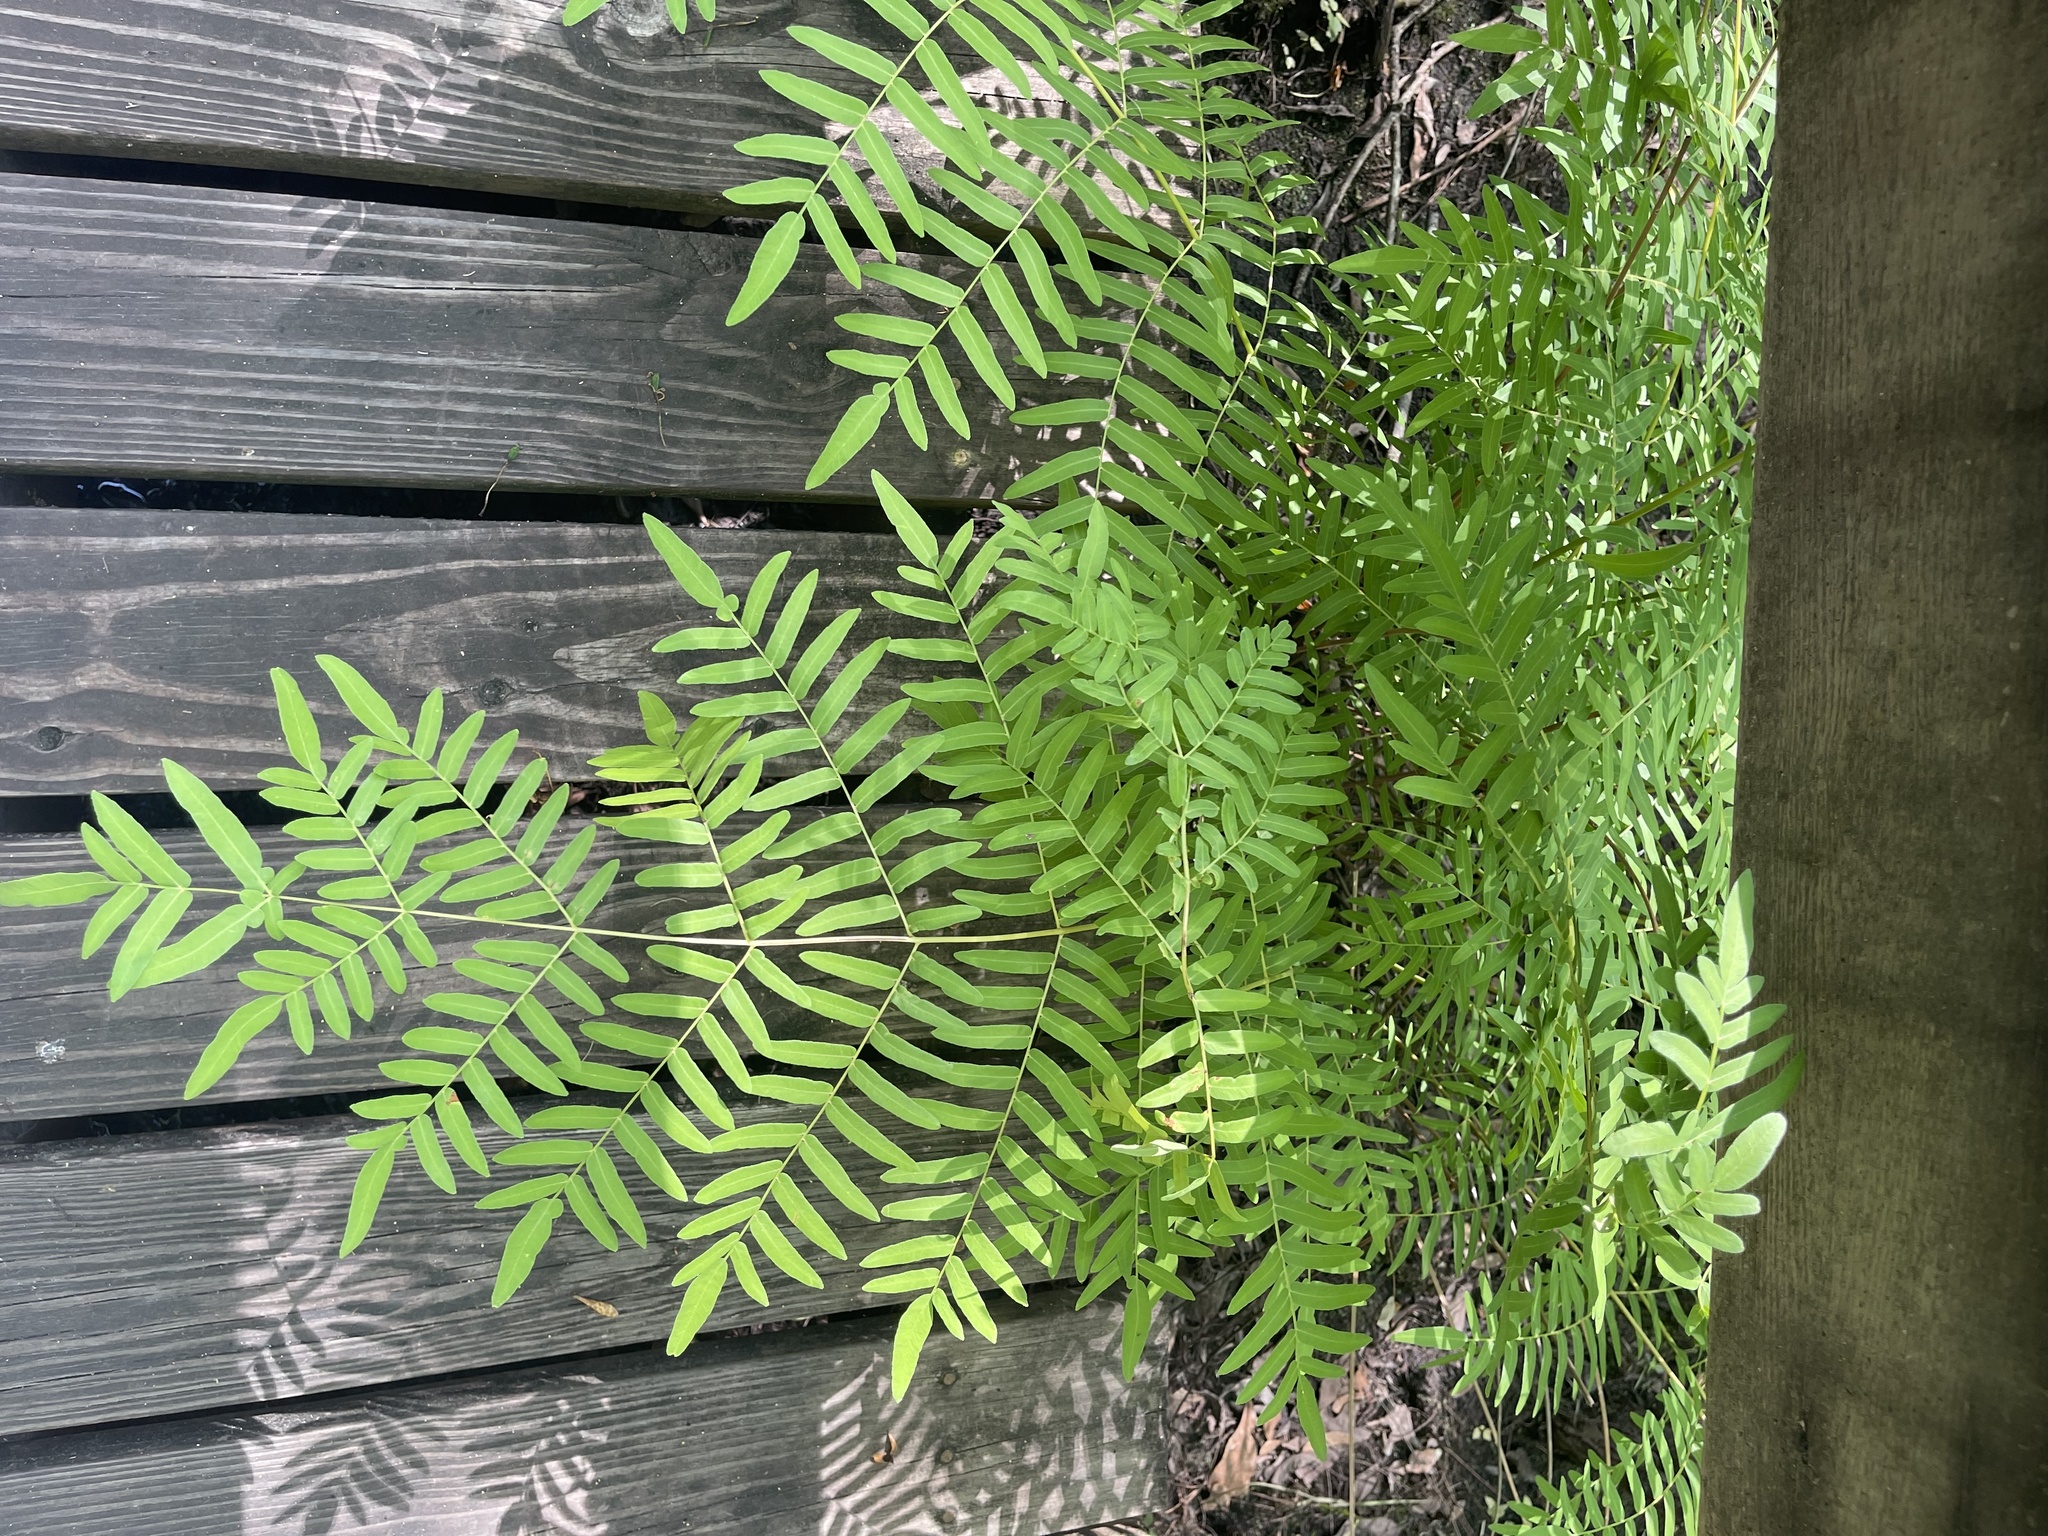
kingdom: Plantae
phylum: Tracheophyta
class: Polypodiopsida
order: Osmundales
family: Osmundaceae
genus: Osmunda
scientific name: Osmunda spectabilis
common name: American royal fern
